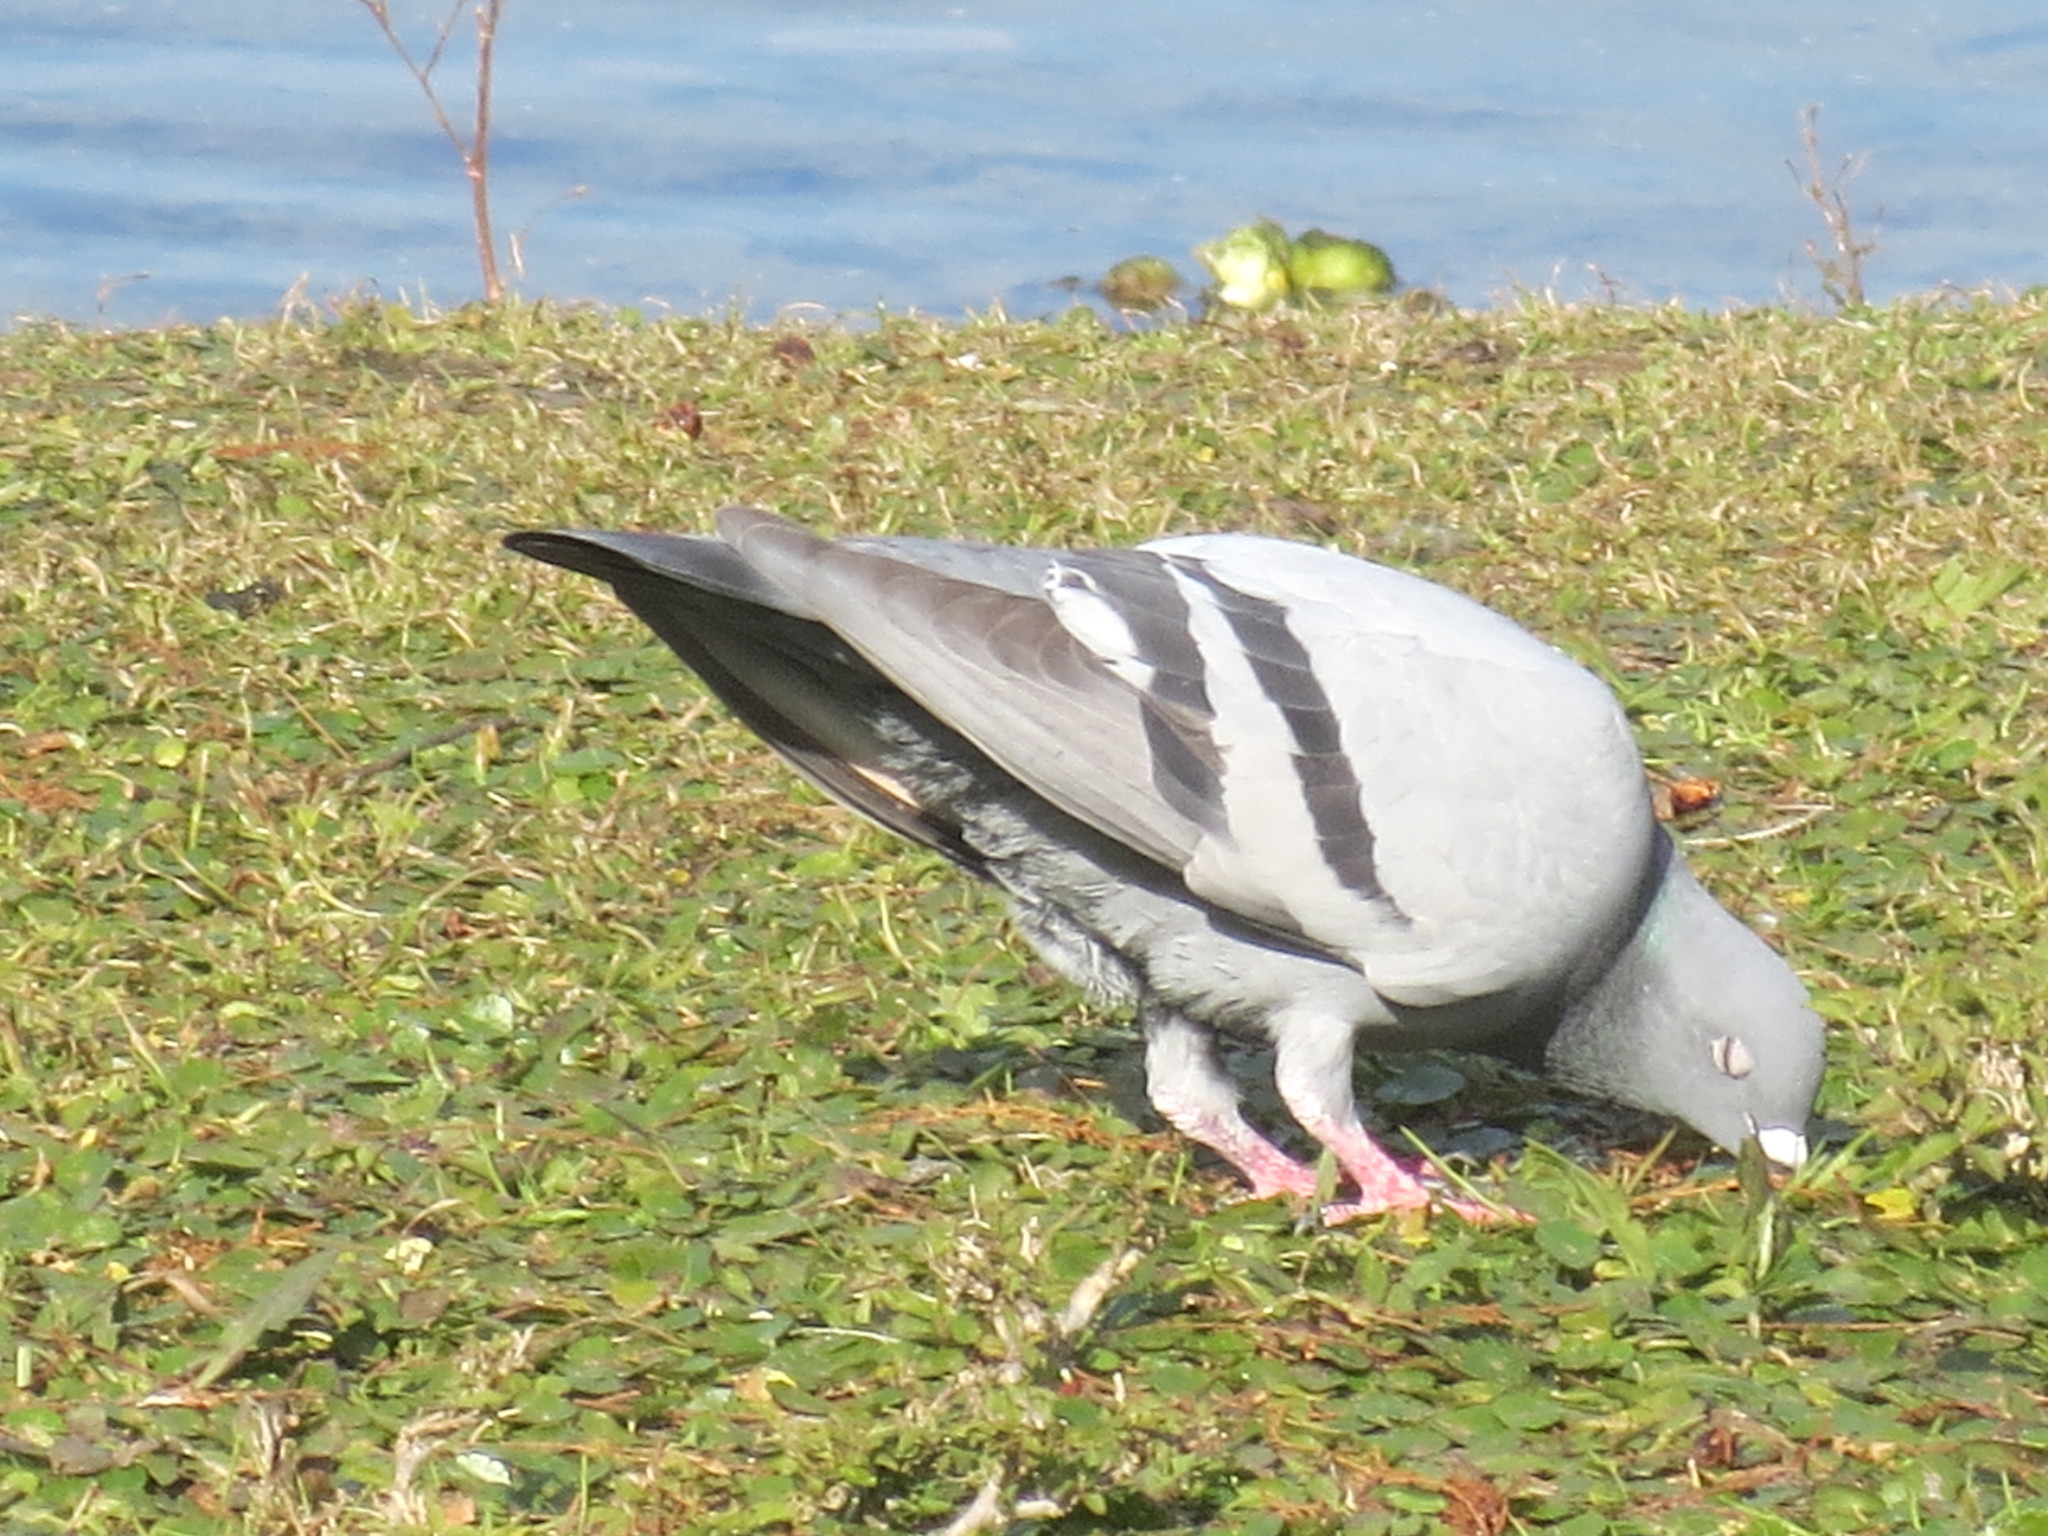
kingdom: Animalia
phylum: Chordata
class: Aves
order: Columbiformes
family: Columbidae
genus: Columba
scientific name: Columba livia
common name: Rock pigeon
